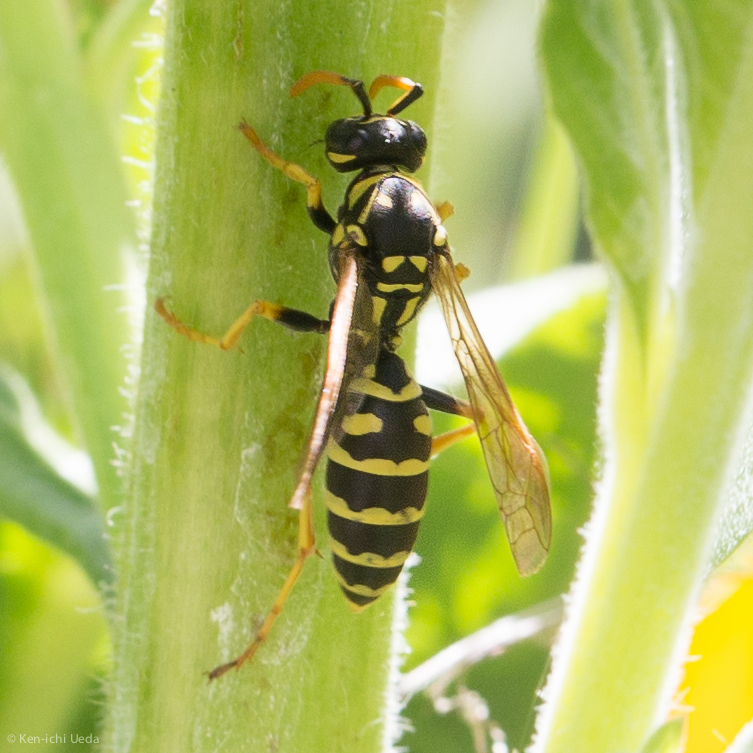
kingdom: Animalia
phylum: Arthropoda
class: Insecta
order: Hymenoptera
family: Eumenidae
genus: Polistes
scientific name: Polistes dominula
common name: Paper wasp
